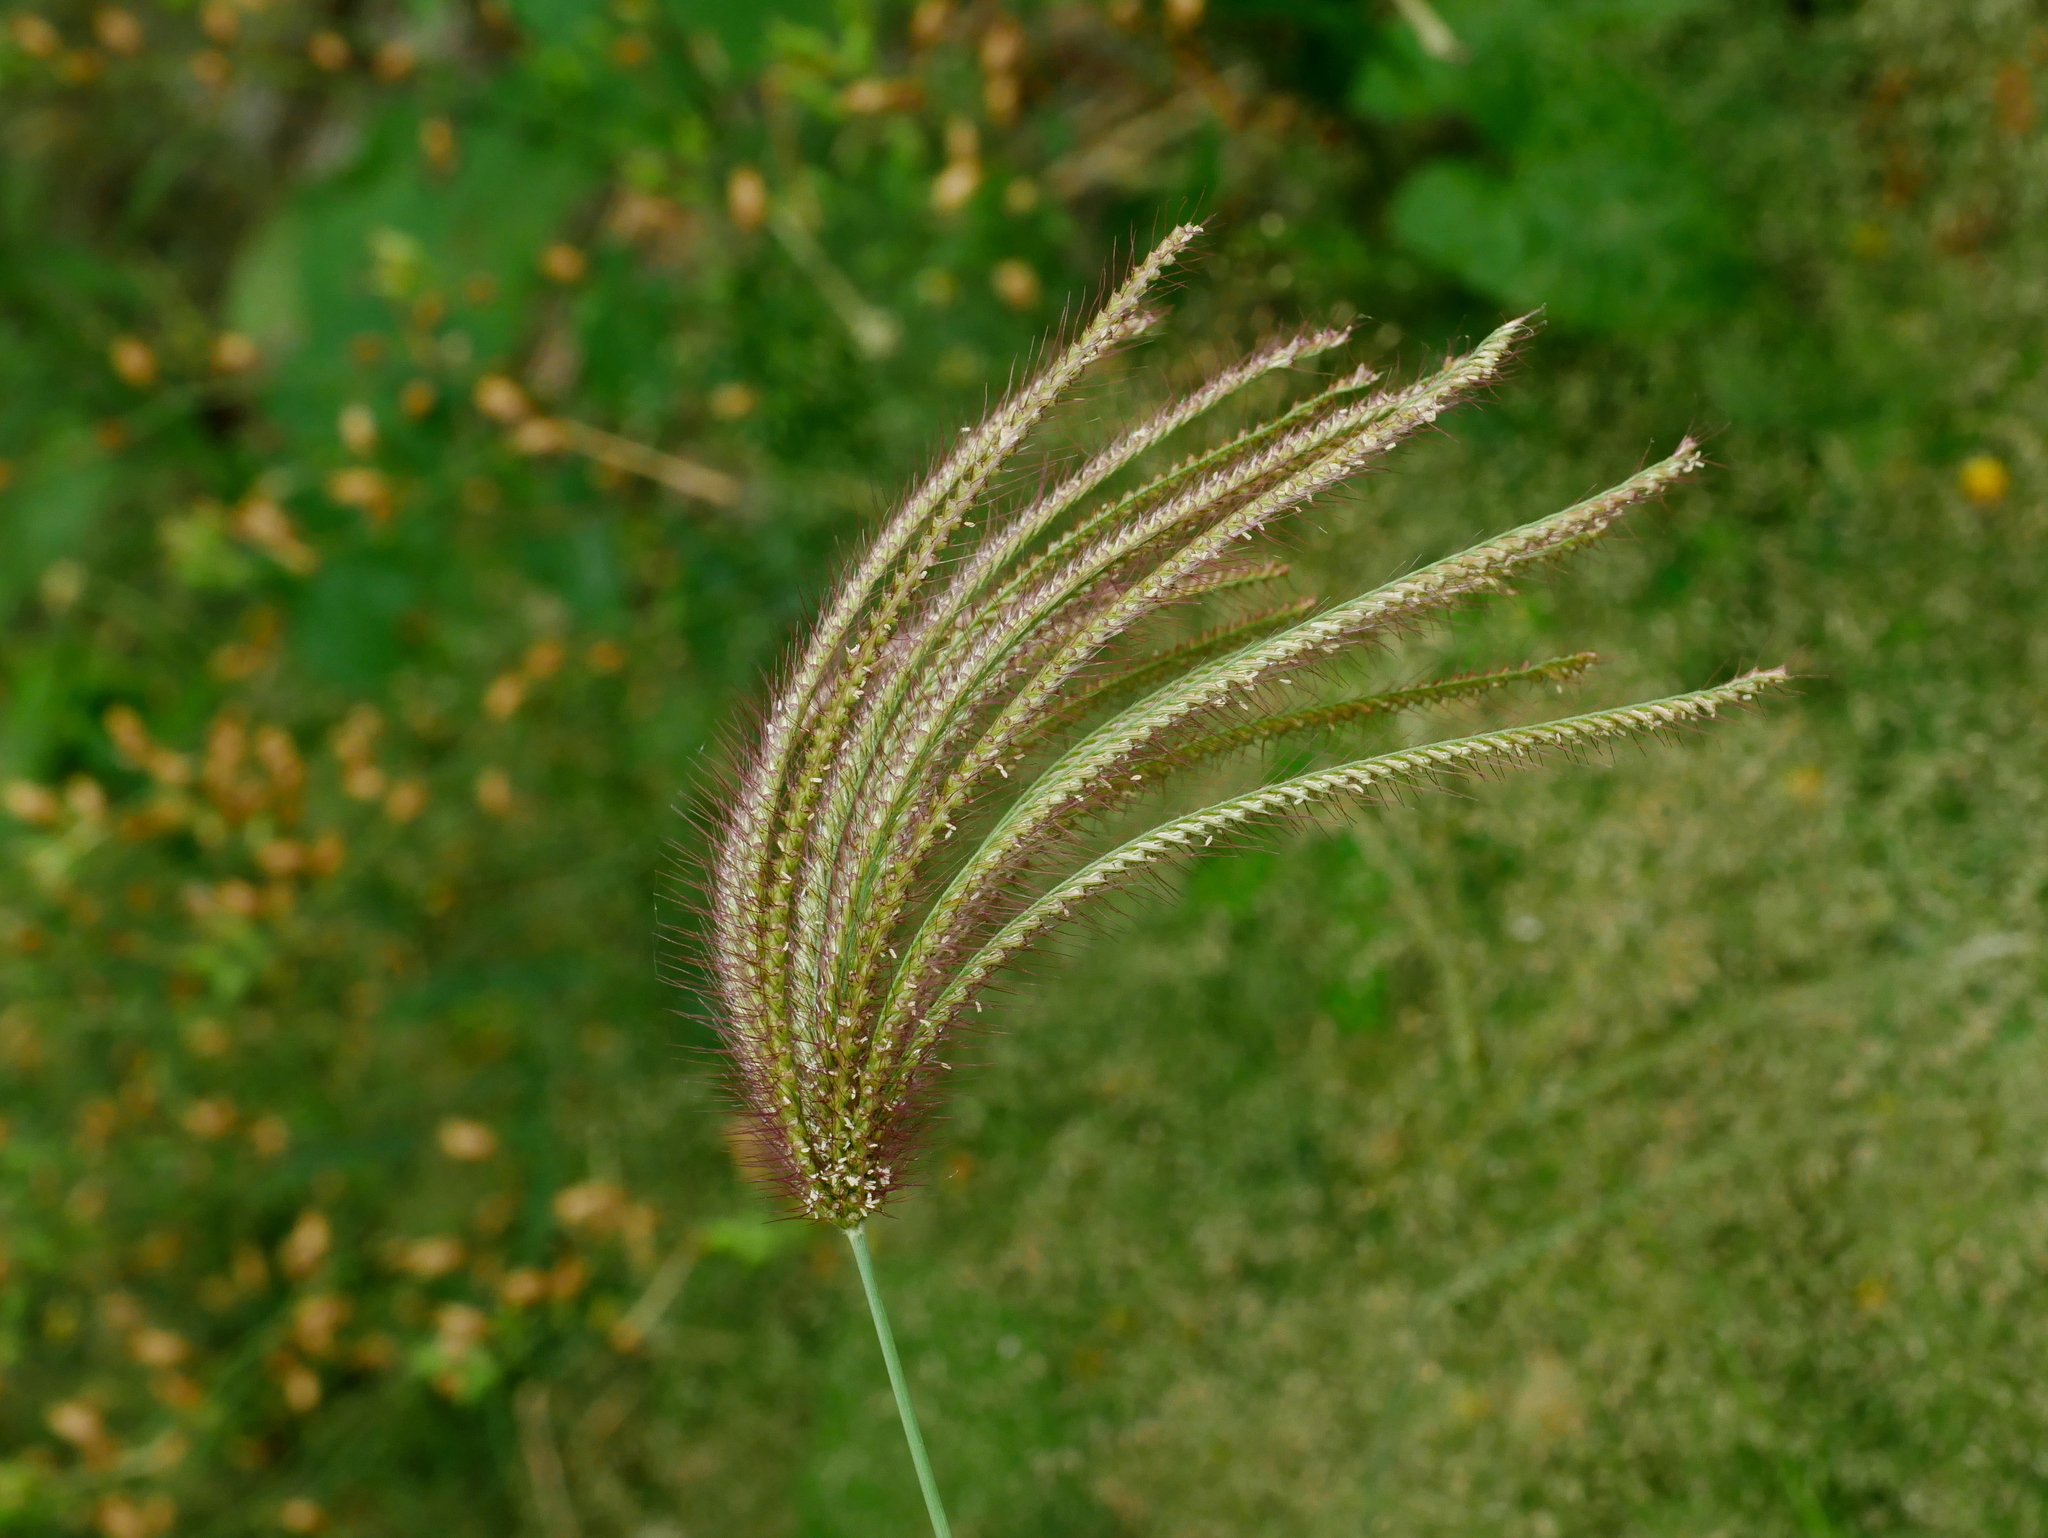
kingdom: Plantae
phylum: Tracheophyta
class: Liliopsida
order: Poales
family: Poaceae
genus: Chloris
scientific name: Chloris barbata
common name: Swollen fingergrass
